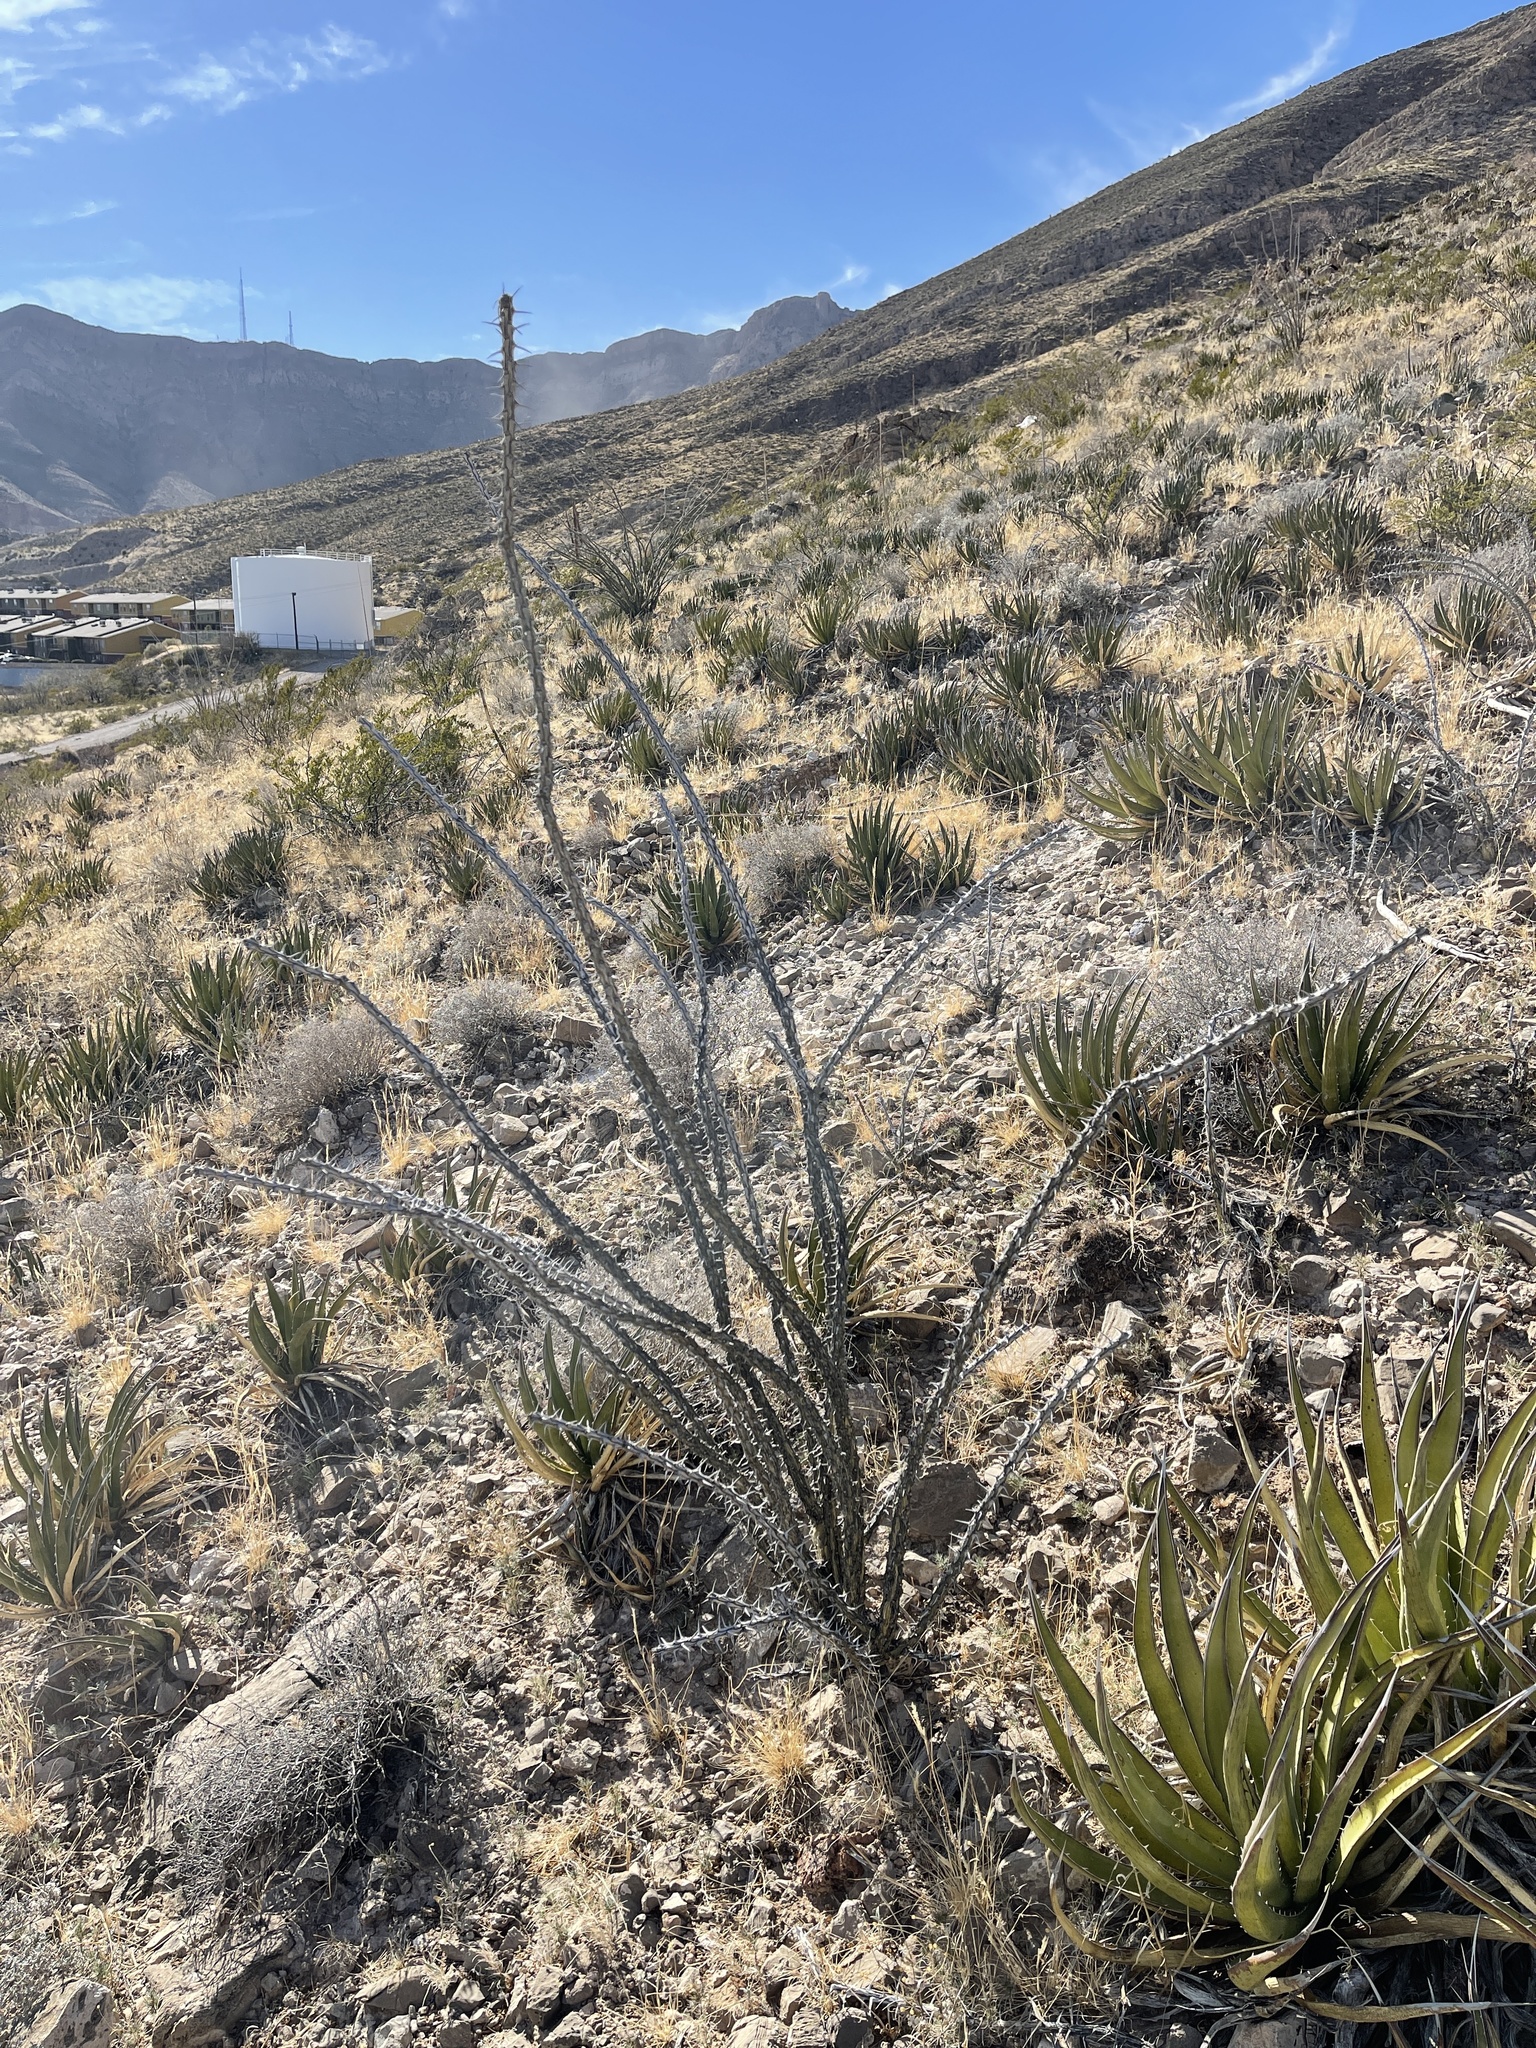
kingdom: Plantae
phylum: Tracheophyta
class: Magnoliopsida
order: Ericales
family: Fouquieriaceae
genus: Fouquieria
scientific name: Fouquieria splendens
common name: Vine-cactus
